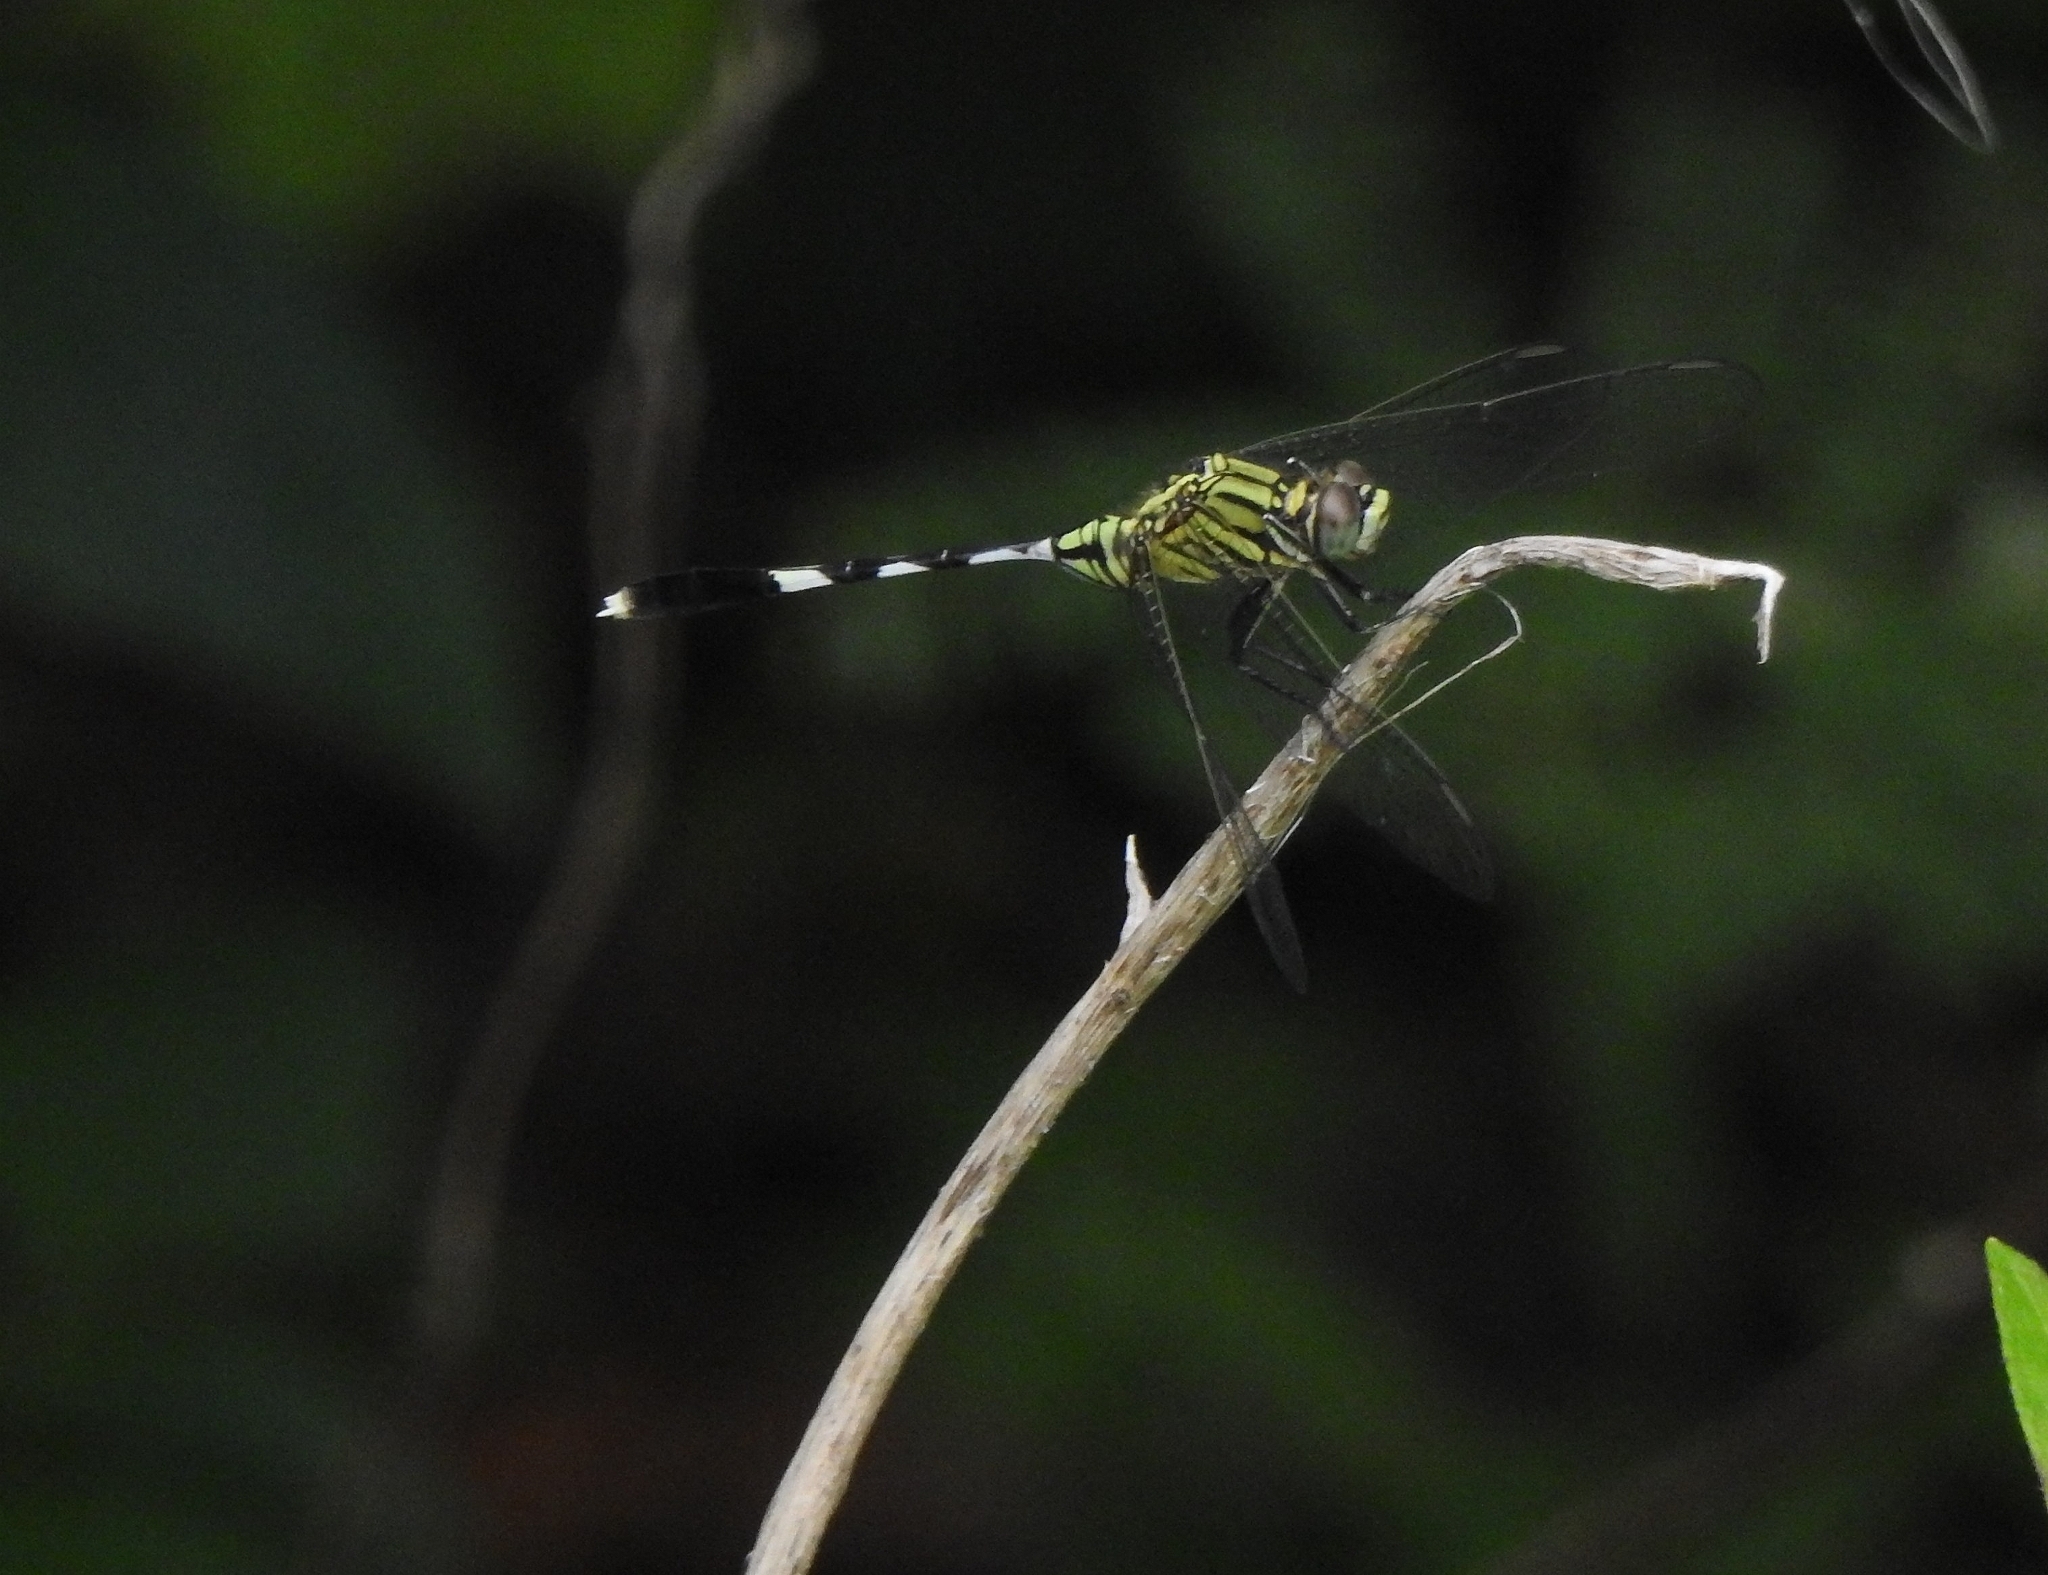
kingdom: Animalia
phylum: Arthropoda
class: Insecta
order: Odonata
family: Libellulidae
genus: Orthetrum
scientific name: Orthetrum sabina
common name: Slender skimmer
